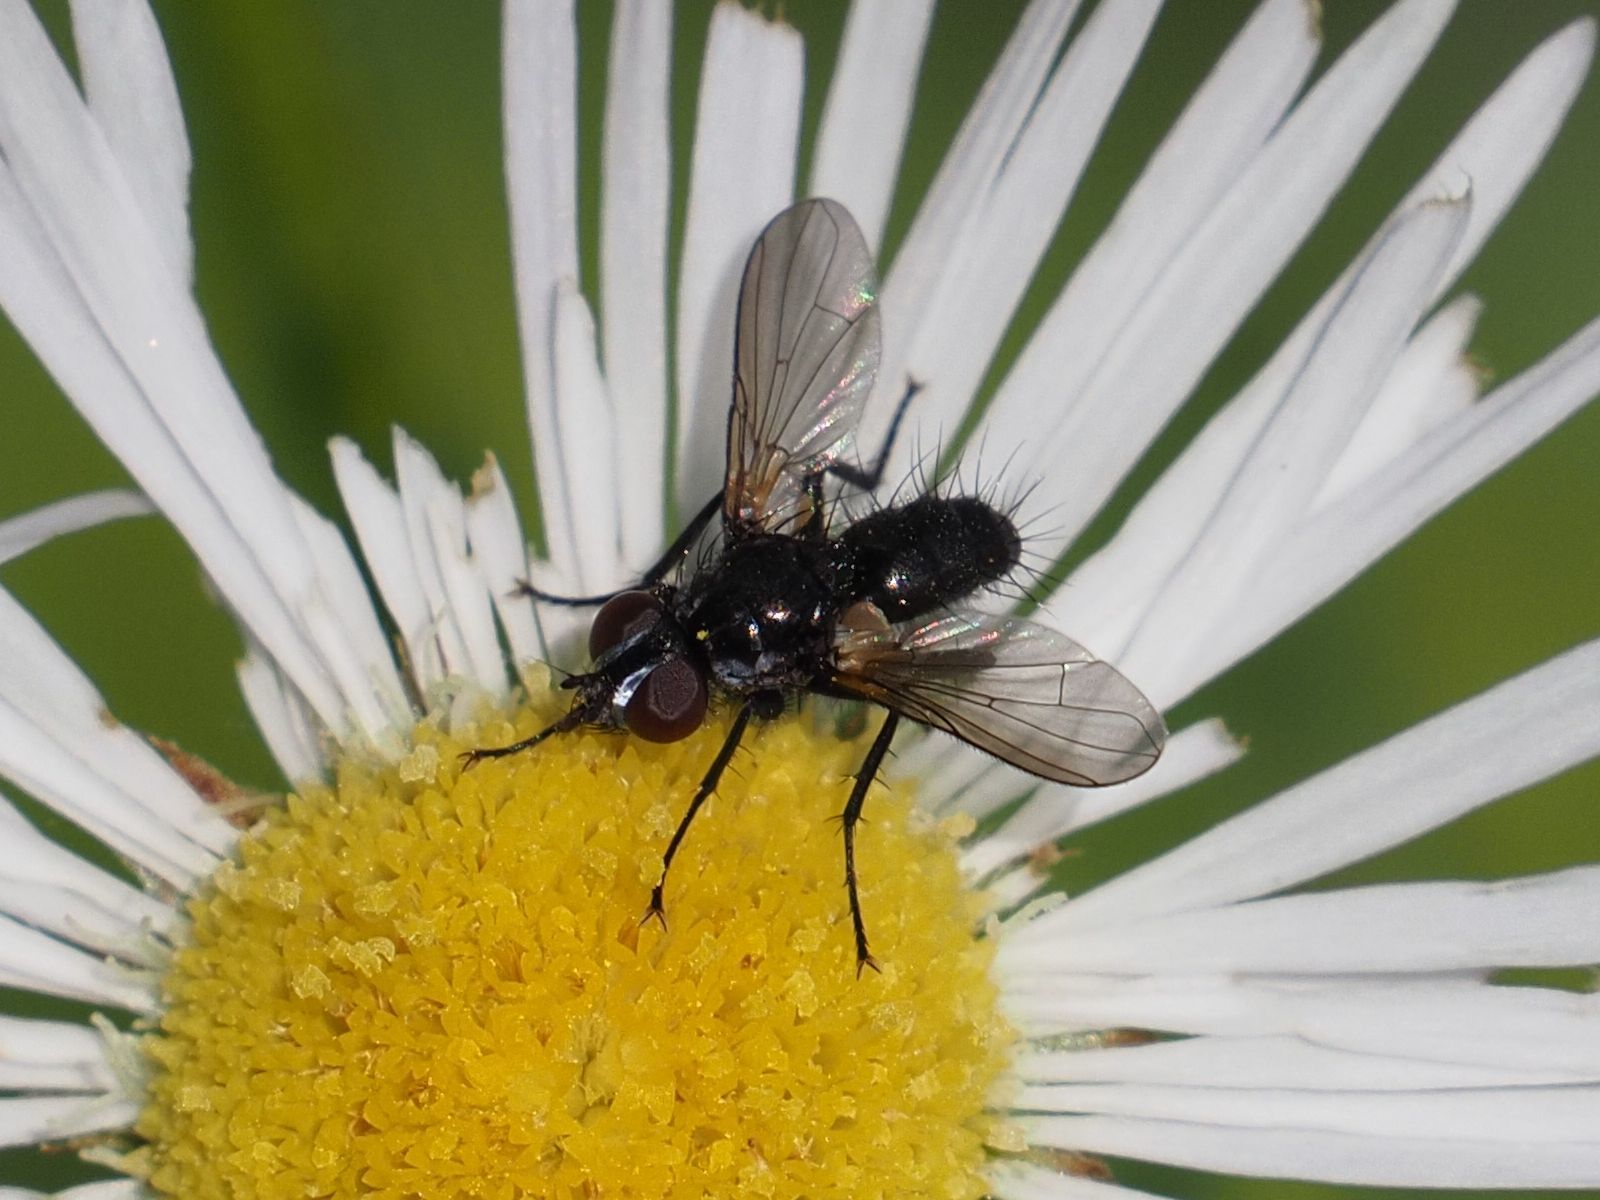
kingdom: Animalia
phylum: Arthropoda
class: Insecta
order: Diptera
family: Tachinidae
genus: Phania
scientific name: Phania funesta
